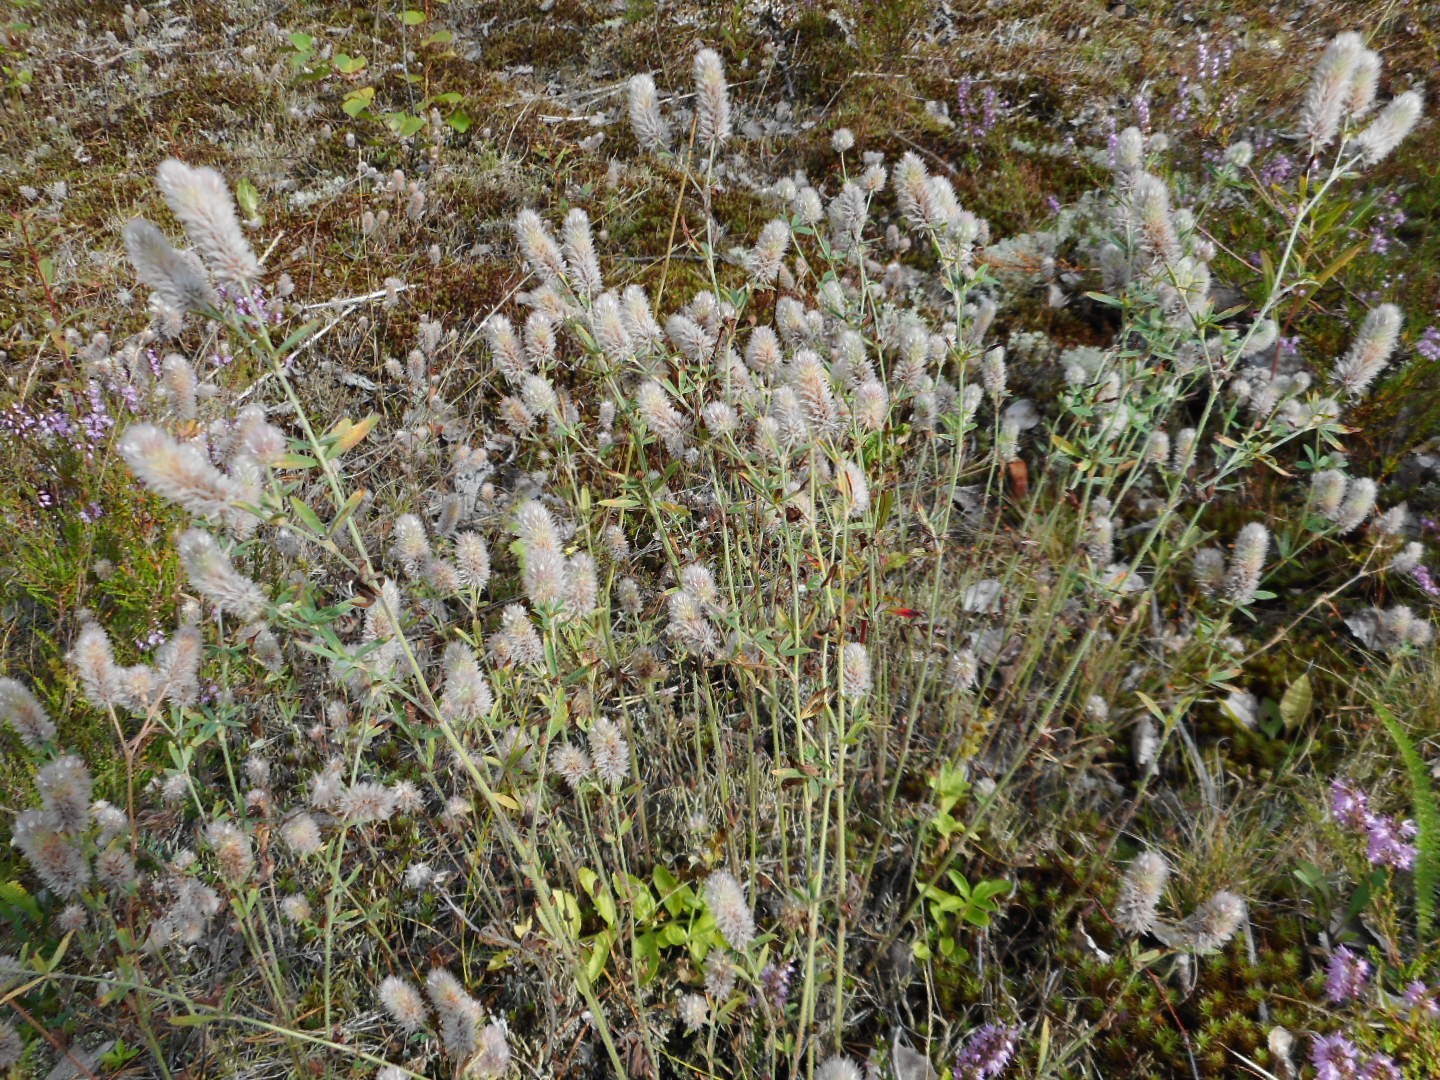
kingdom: Plantae
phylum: Tracheophyta
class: Magnoliopsida
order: Fabales
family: Fabaceae
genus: Trifolium
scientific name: Trifolium arvense
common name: Hare's-foot clover
